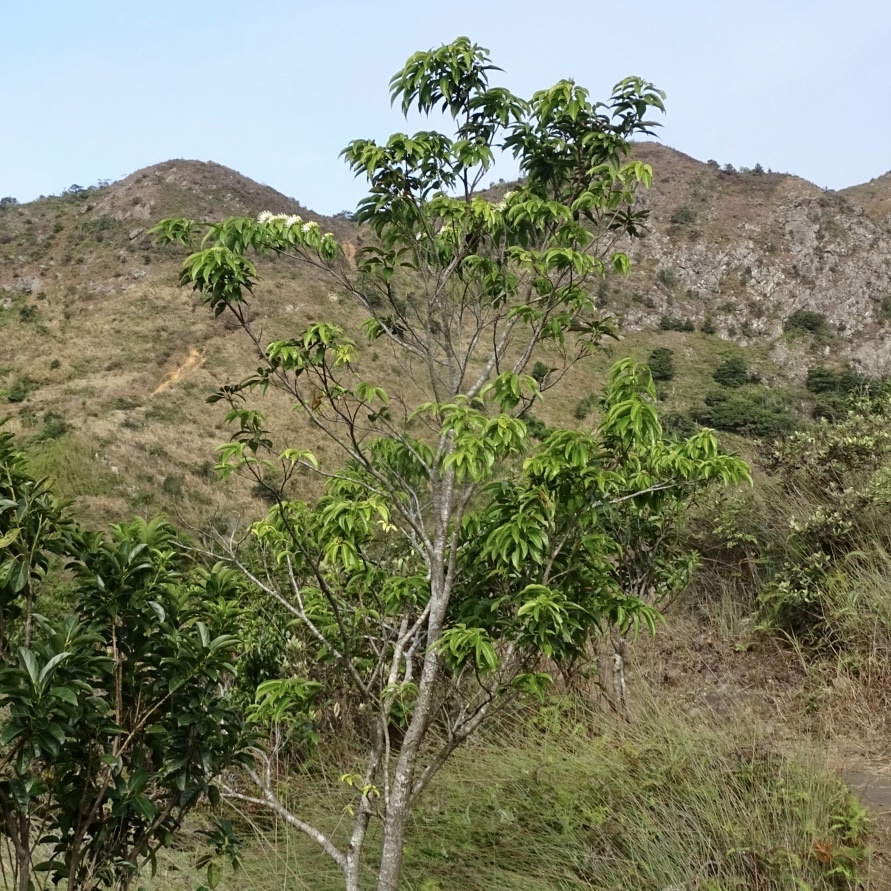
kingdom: Plantae
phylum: Tracheophyta
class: Magnoliopsida
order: Malvales
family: Malvaceae
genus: Reevesia
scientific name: Reevesia thyrsoidea
